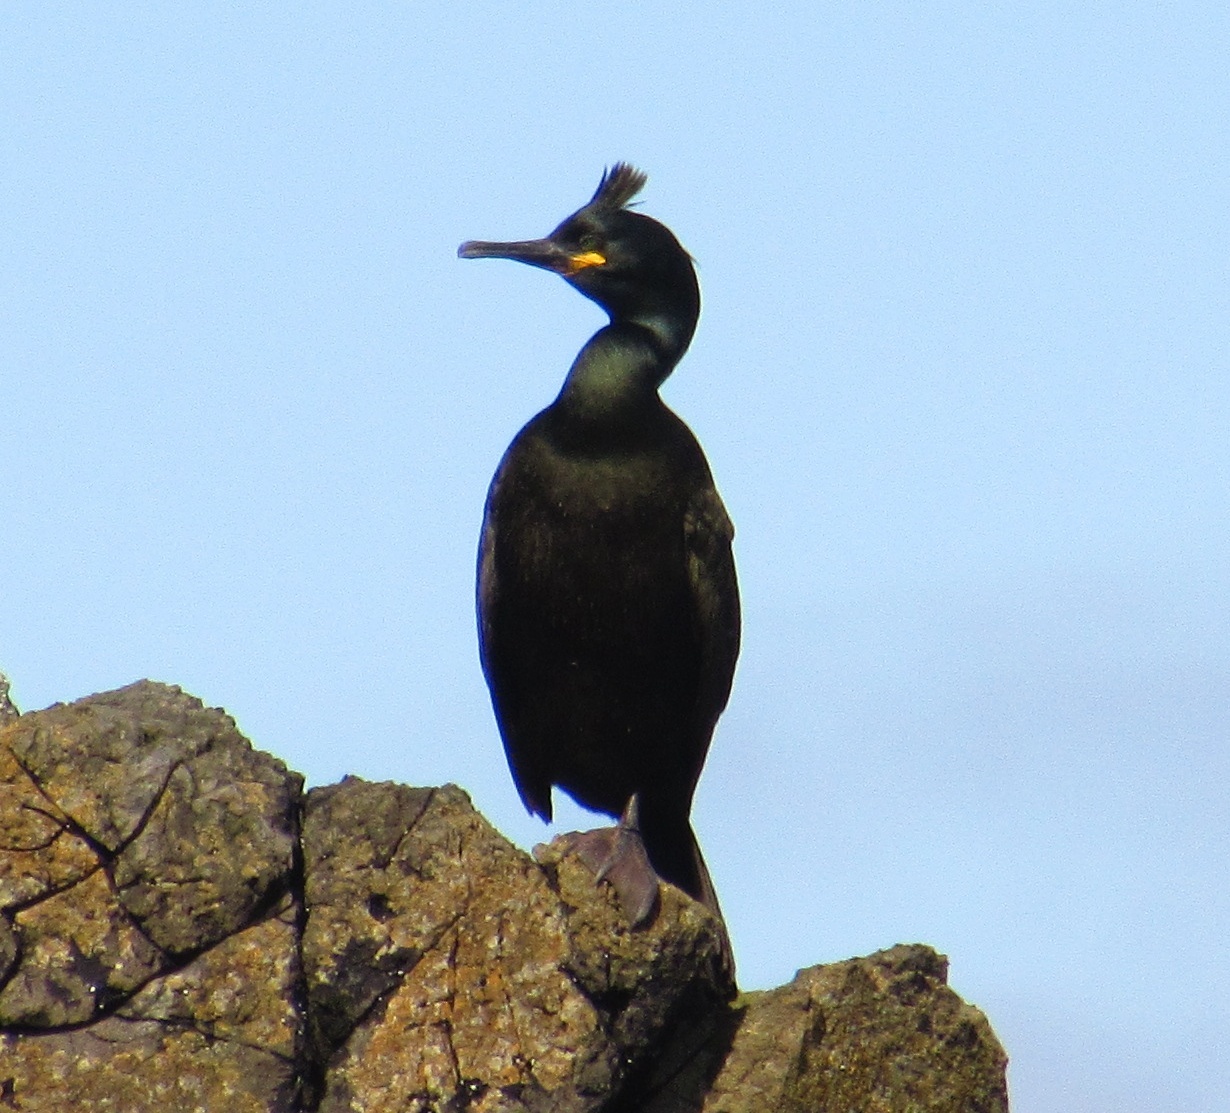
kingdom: Animalia
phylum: Chordata
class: Aves
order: Suliformes
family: Phalacrocoracidae
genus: Phalacrocorax
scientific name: Phalacrocorax aristotelis
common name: European shag
